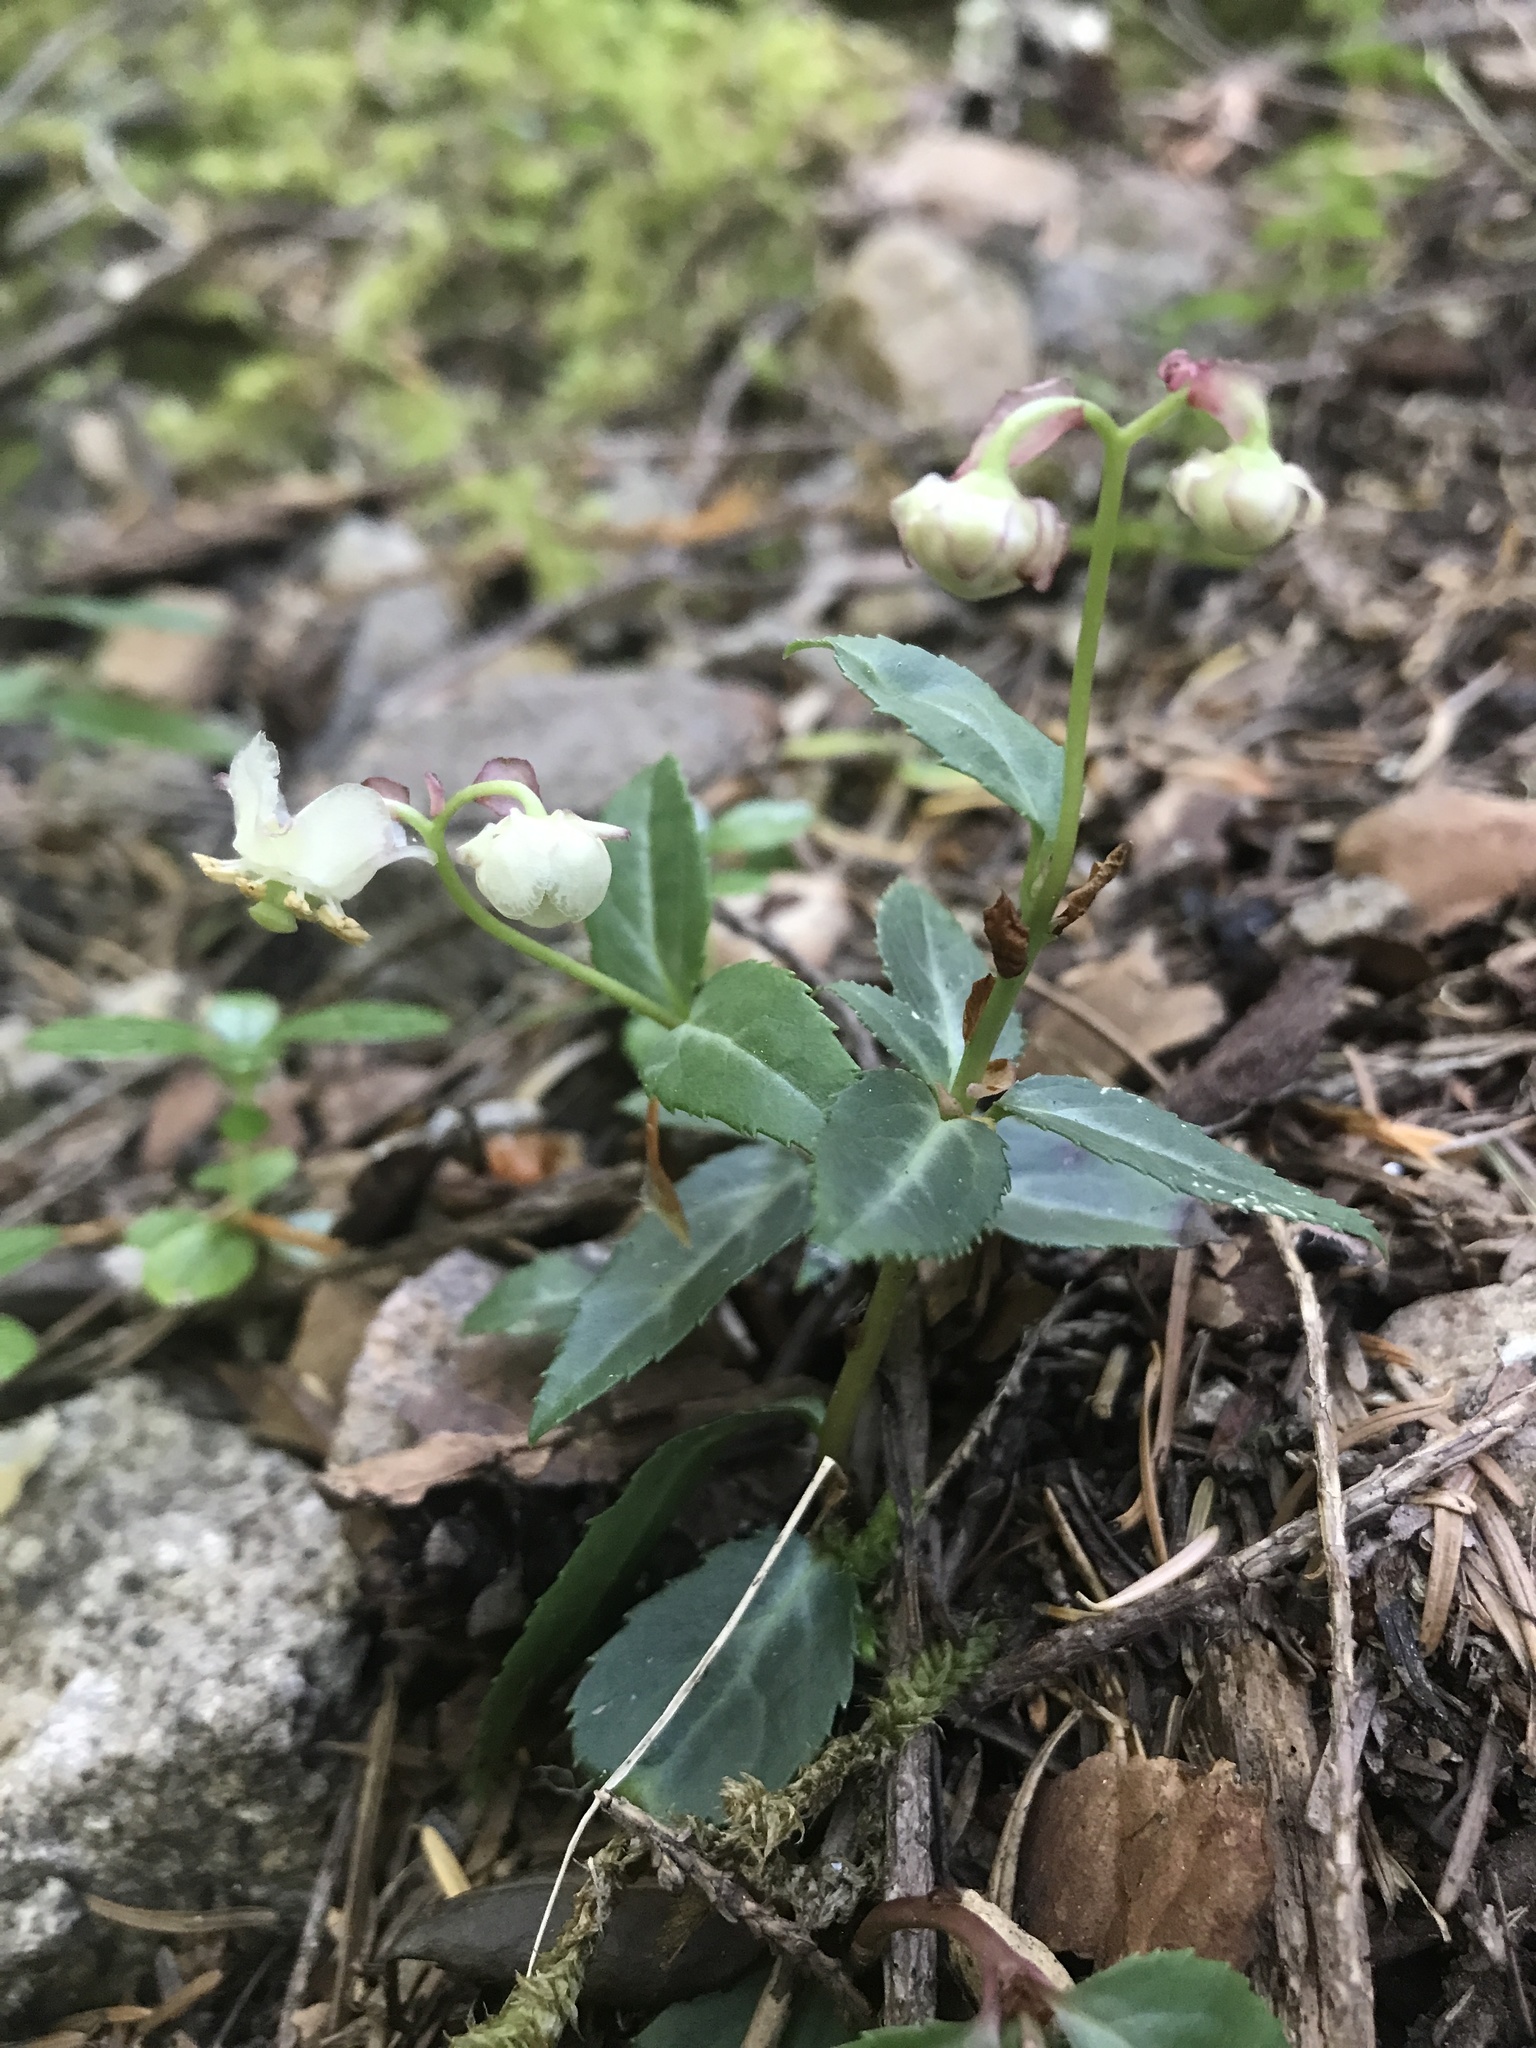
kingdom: Plantae
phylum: Tracheophyta
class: Magnoliopsida
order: Ericales
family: Ericaceae
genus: Chimaphila
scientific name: Chimaphila menziesii
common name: Menzies' pipsissewa
